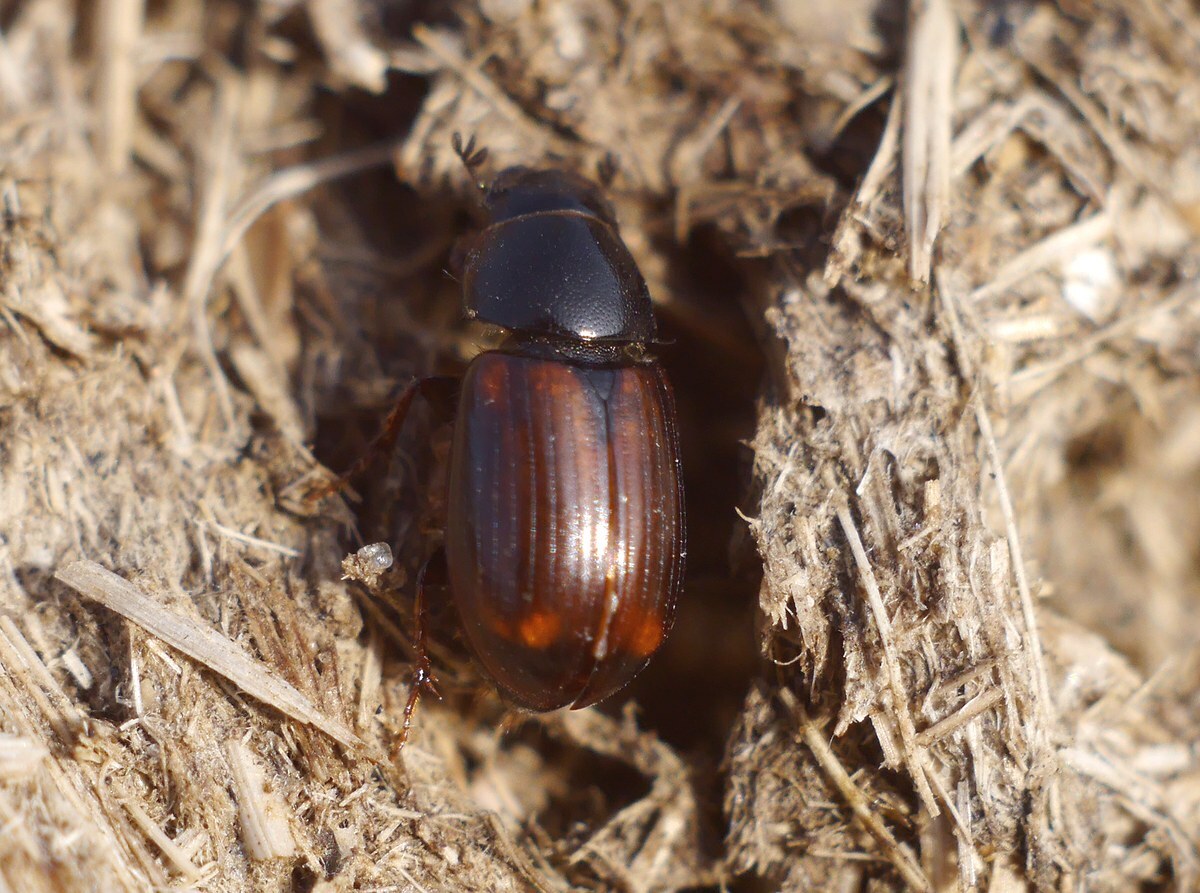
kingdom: Animalia
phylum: Arthropoda
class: Insecta
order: Coleoptera
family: Scarabaeidae
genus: Nobius
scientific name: Nobius serotinus
